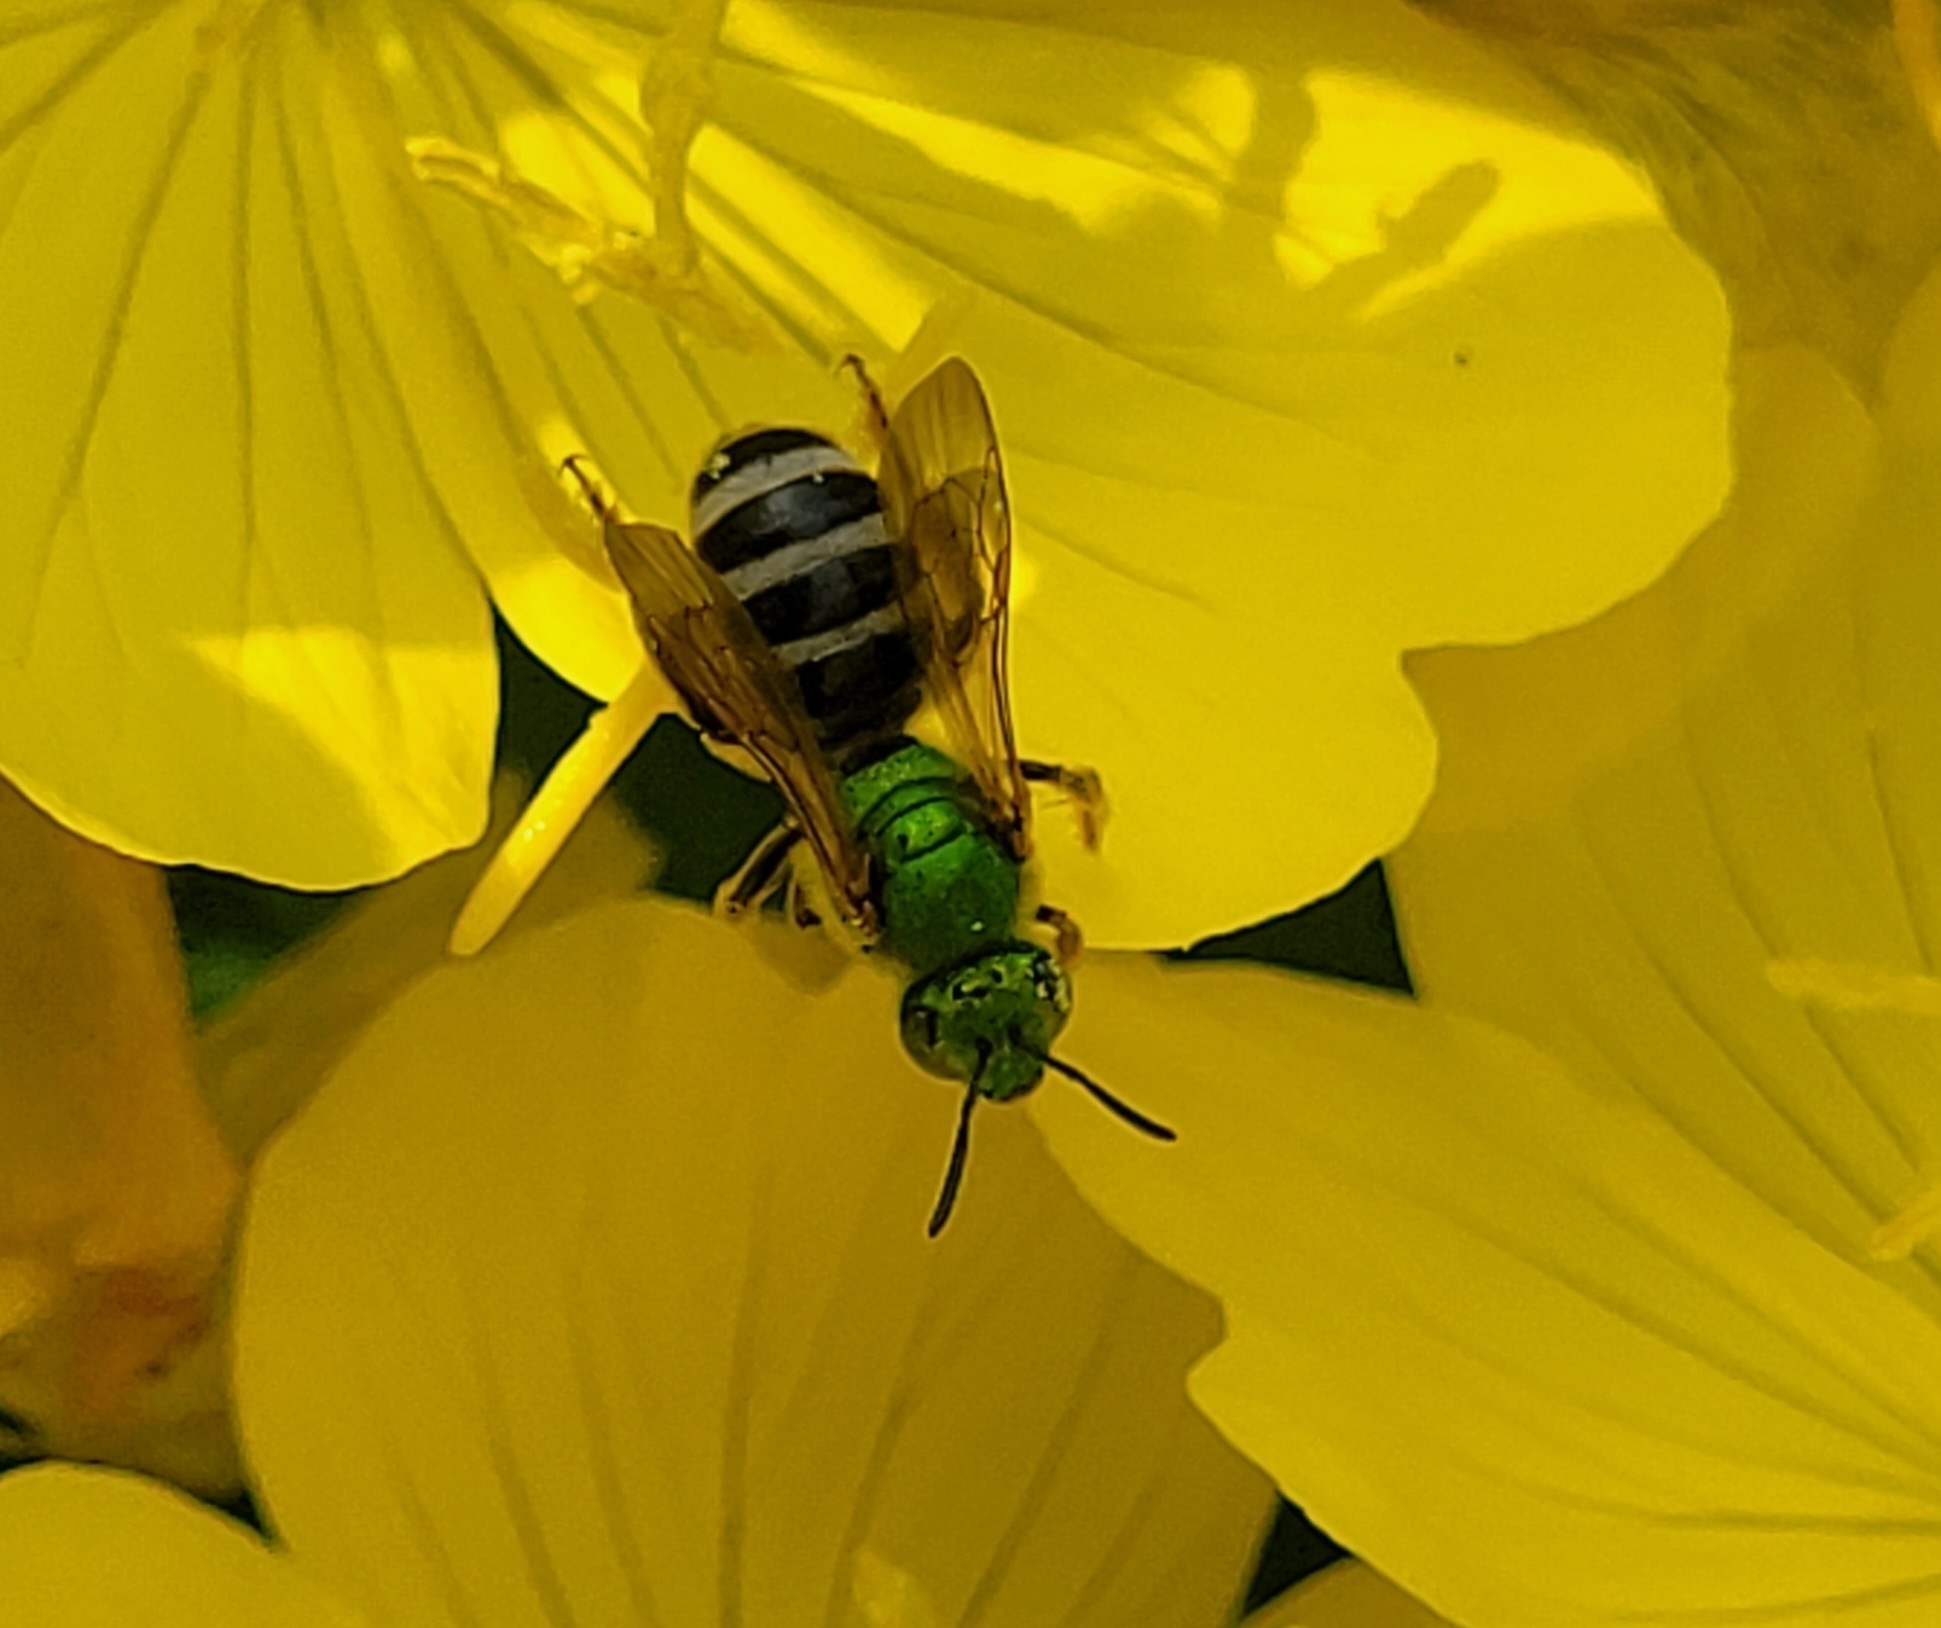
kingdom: Animalia
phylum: Arthropoda
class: Insecta
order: Hymenoptera
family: Halictidae
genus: Agapostemon
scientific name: Agapostemon virescens
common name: Bicolored striped sweat bee
